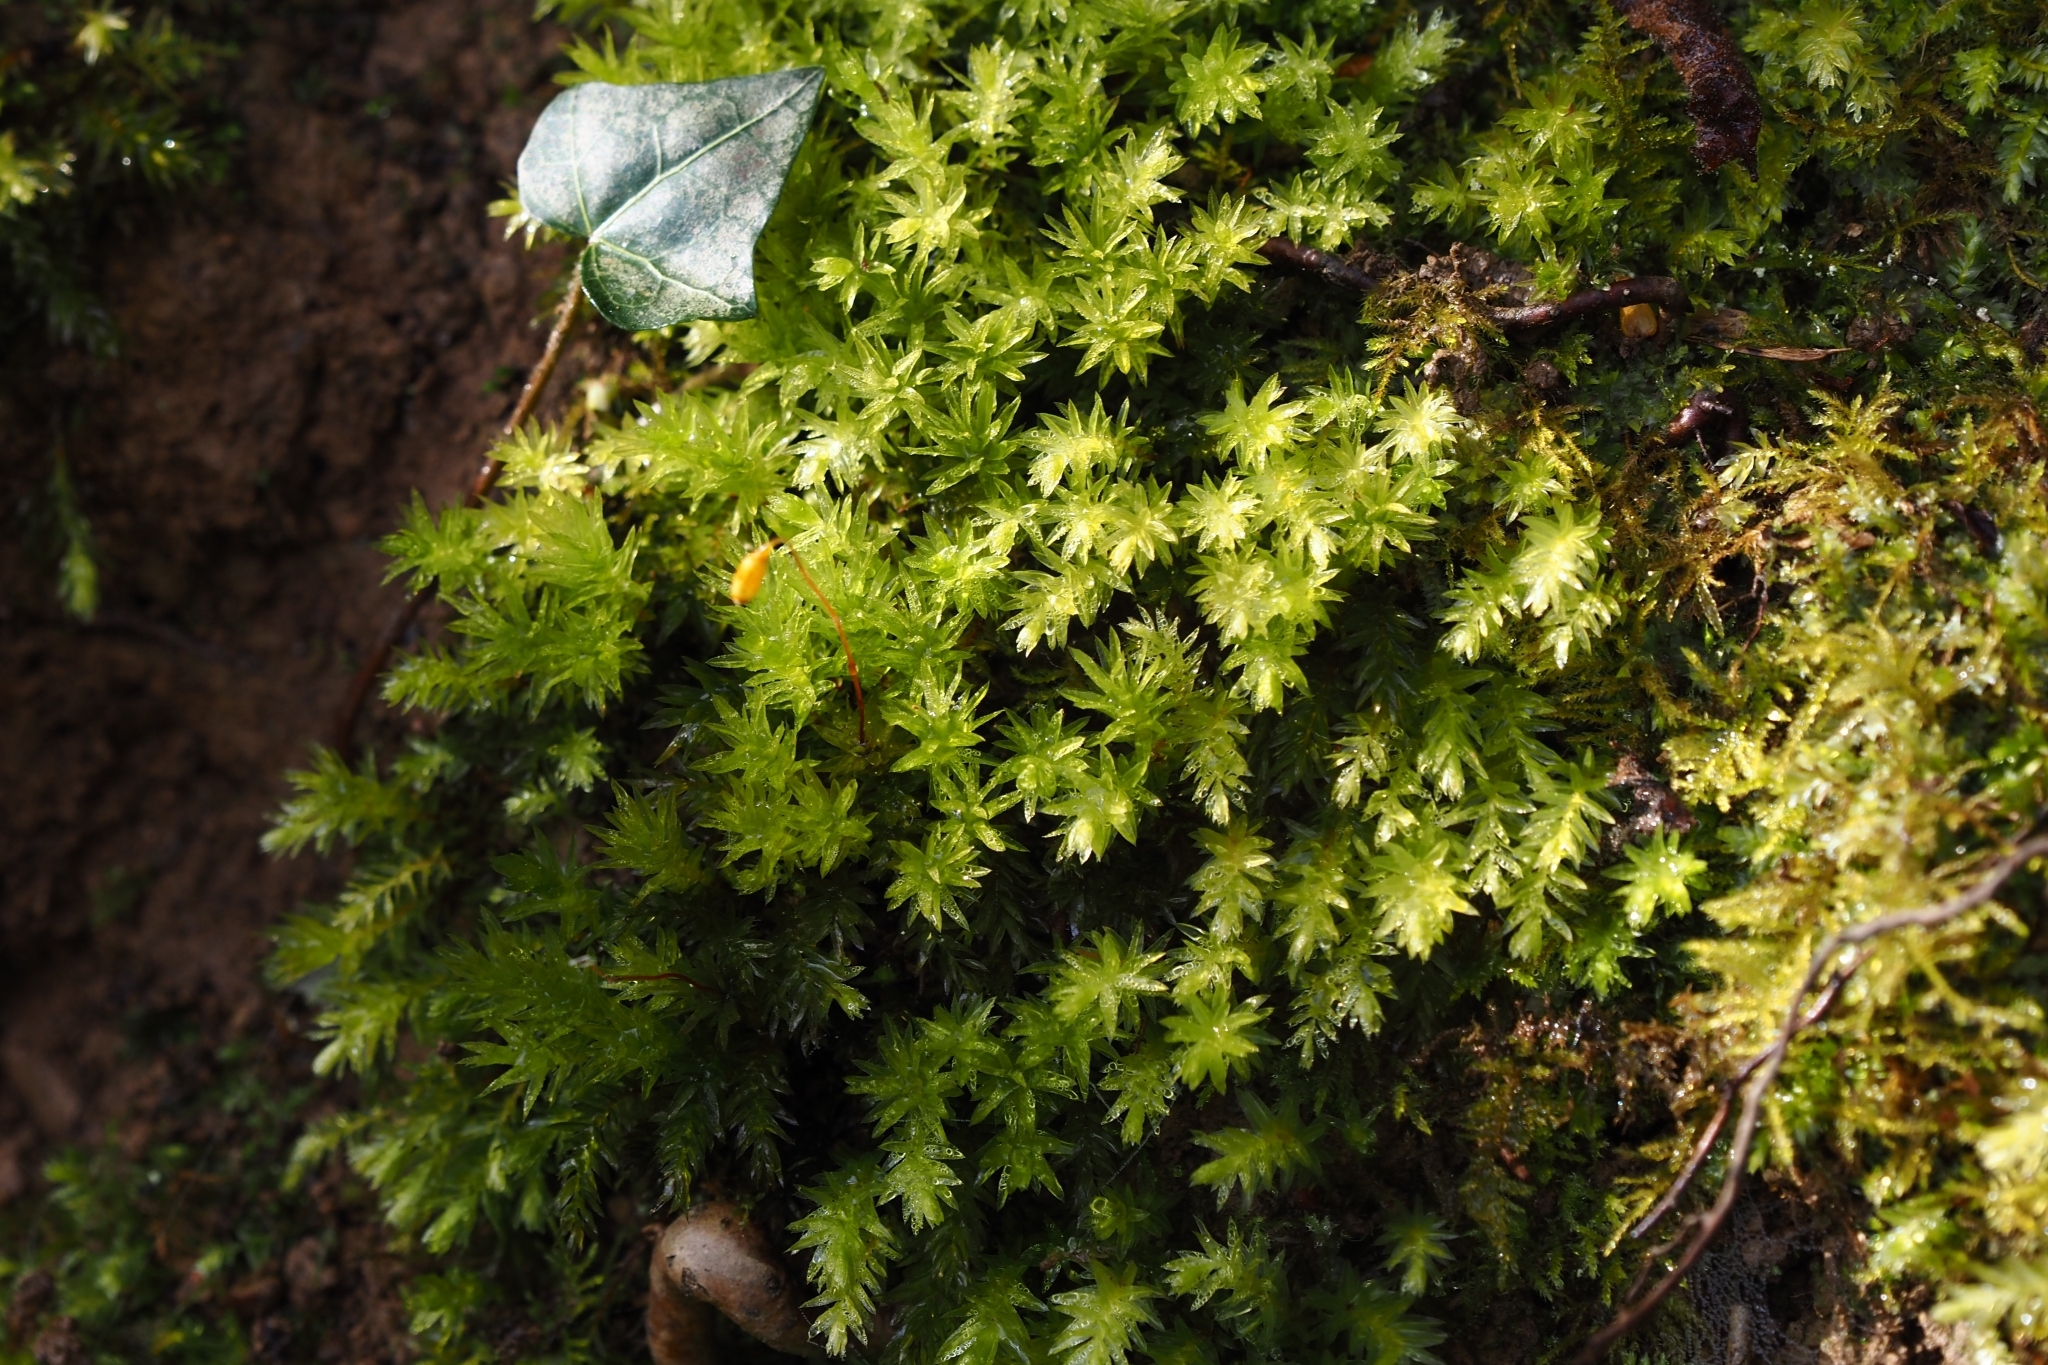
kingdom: Plantae
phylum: Bryophyta
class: Bryopsida
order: Bryales
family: Mniaceae
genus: Mnium
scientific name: Mnium hornum
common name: Swan's-neck leafy moss
